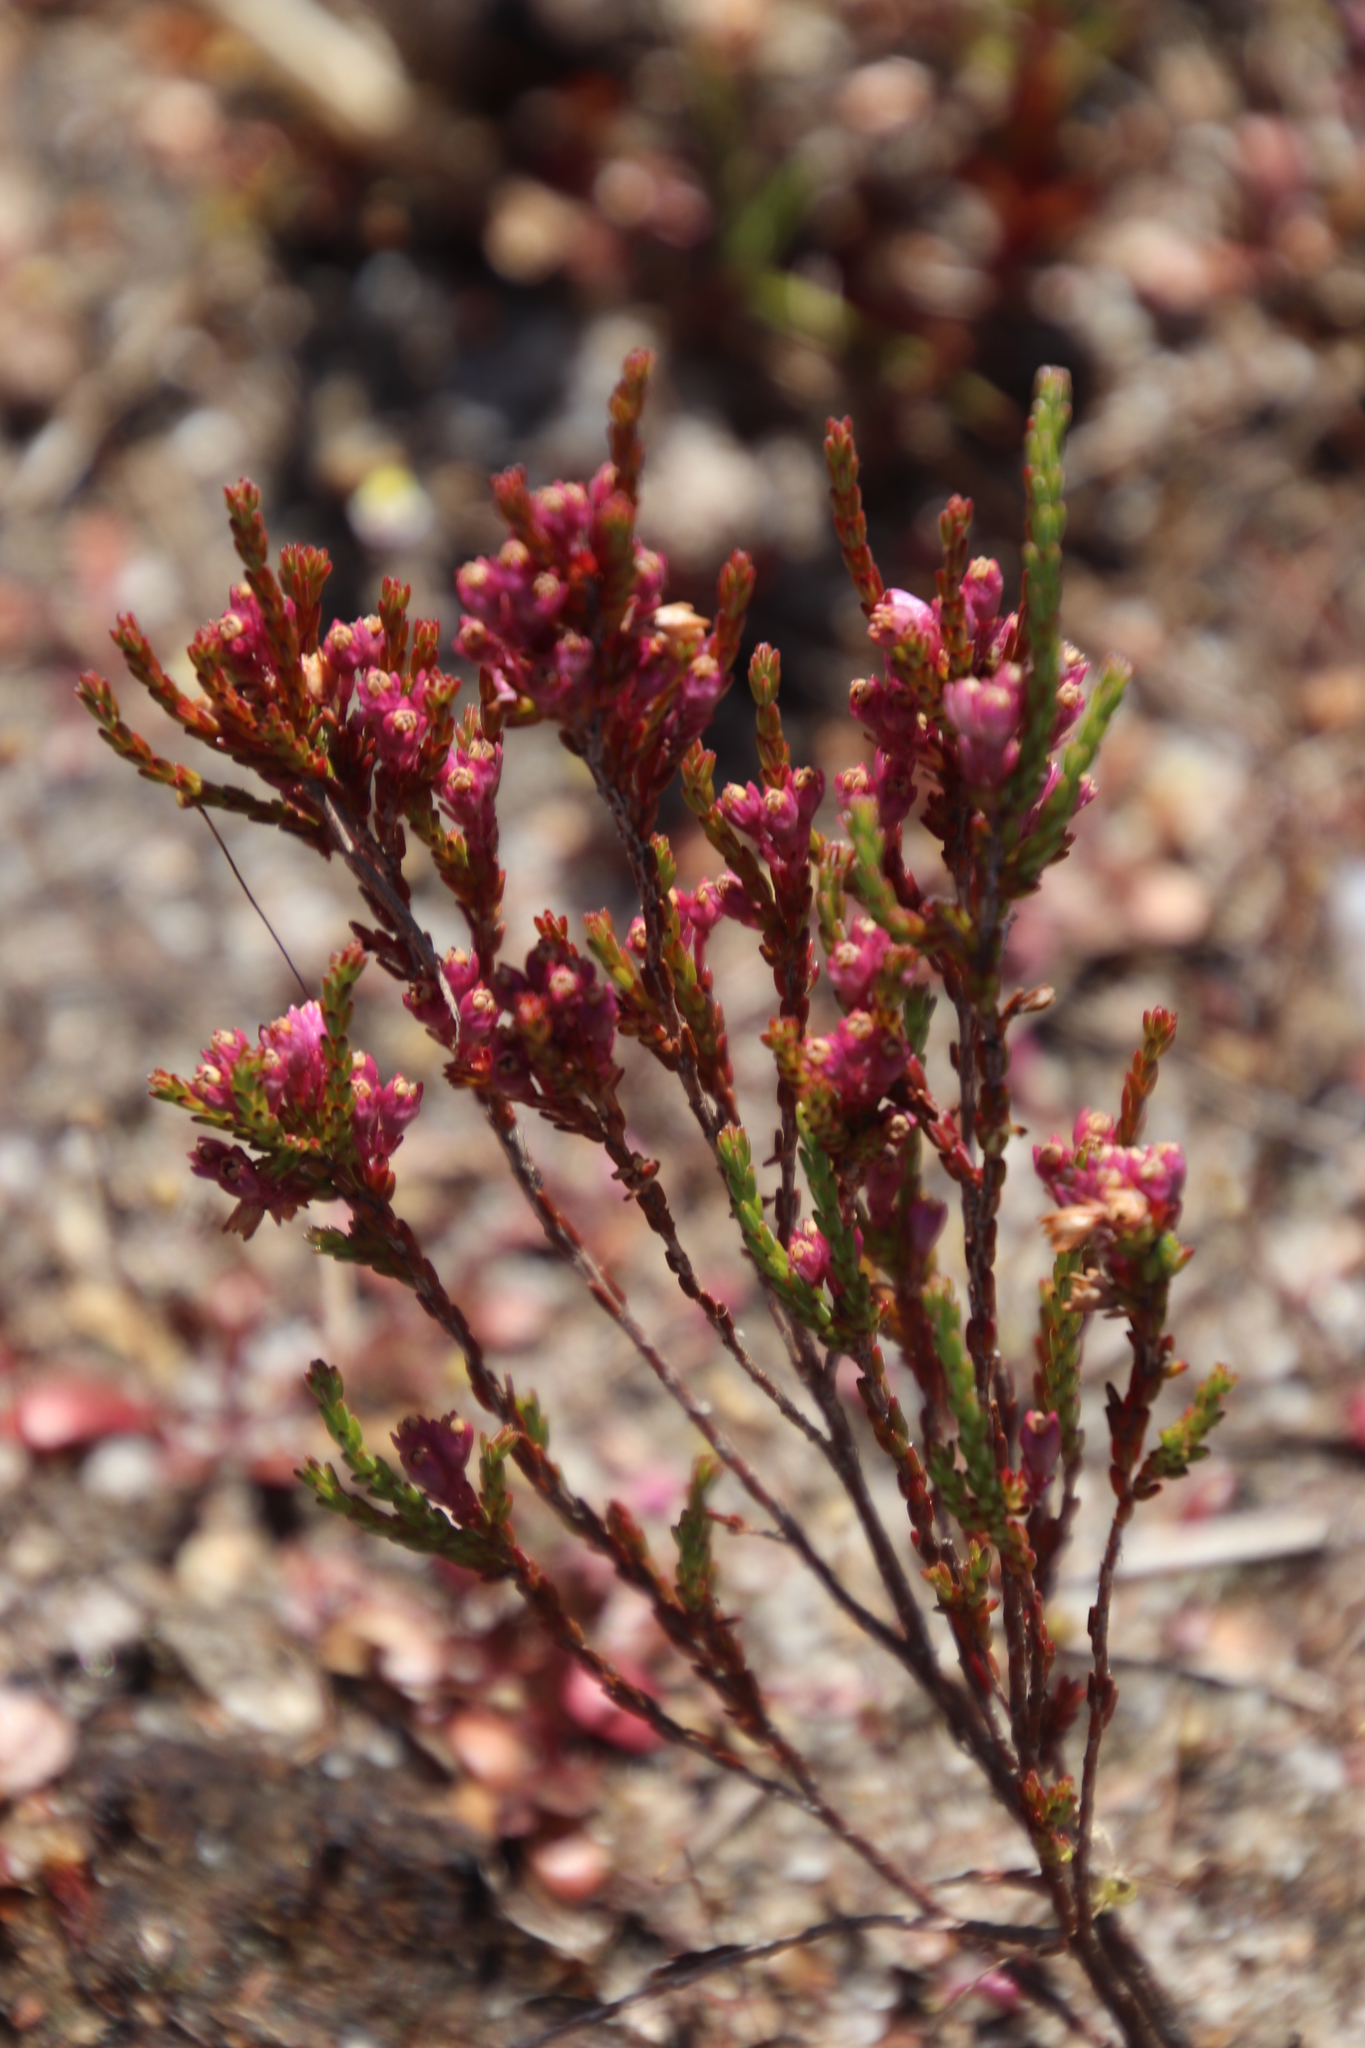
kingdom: Plantae
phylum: Tracheophyta
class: Magnoliopsida
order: Ericales
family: Ericaceae
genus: Erica
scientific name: Erica gnaphaloides
